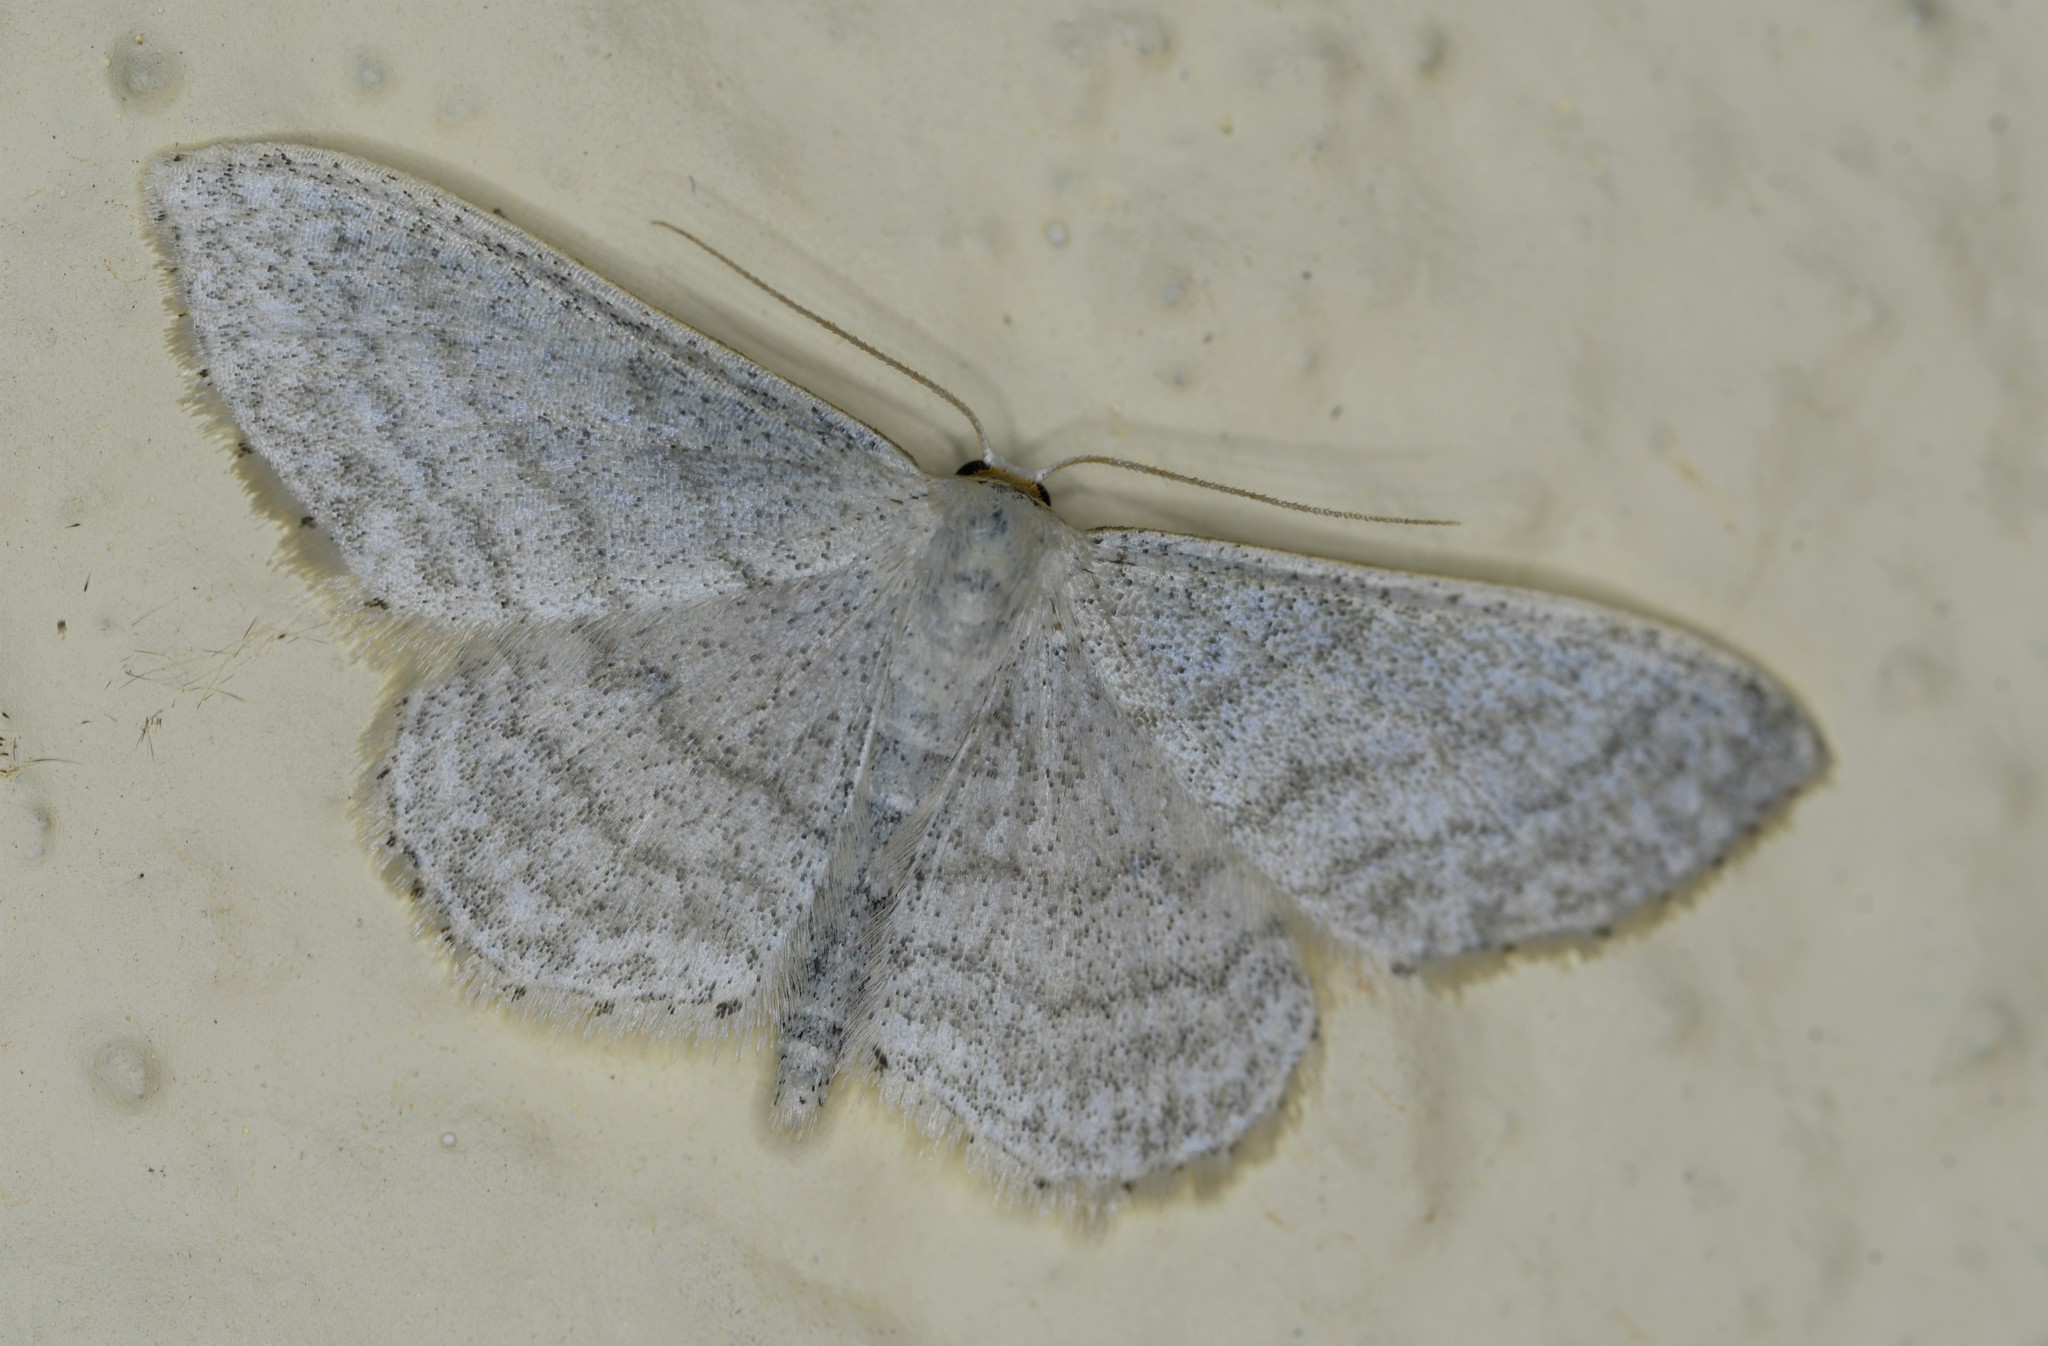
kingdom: Animalia
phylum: Arthropoda
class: Insecta
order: Lepidoptera
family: Geometridae
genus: Idaea
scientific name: Idaea subsericeata
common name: Satin wave
